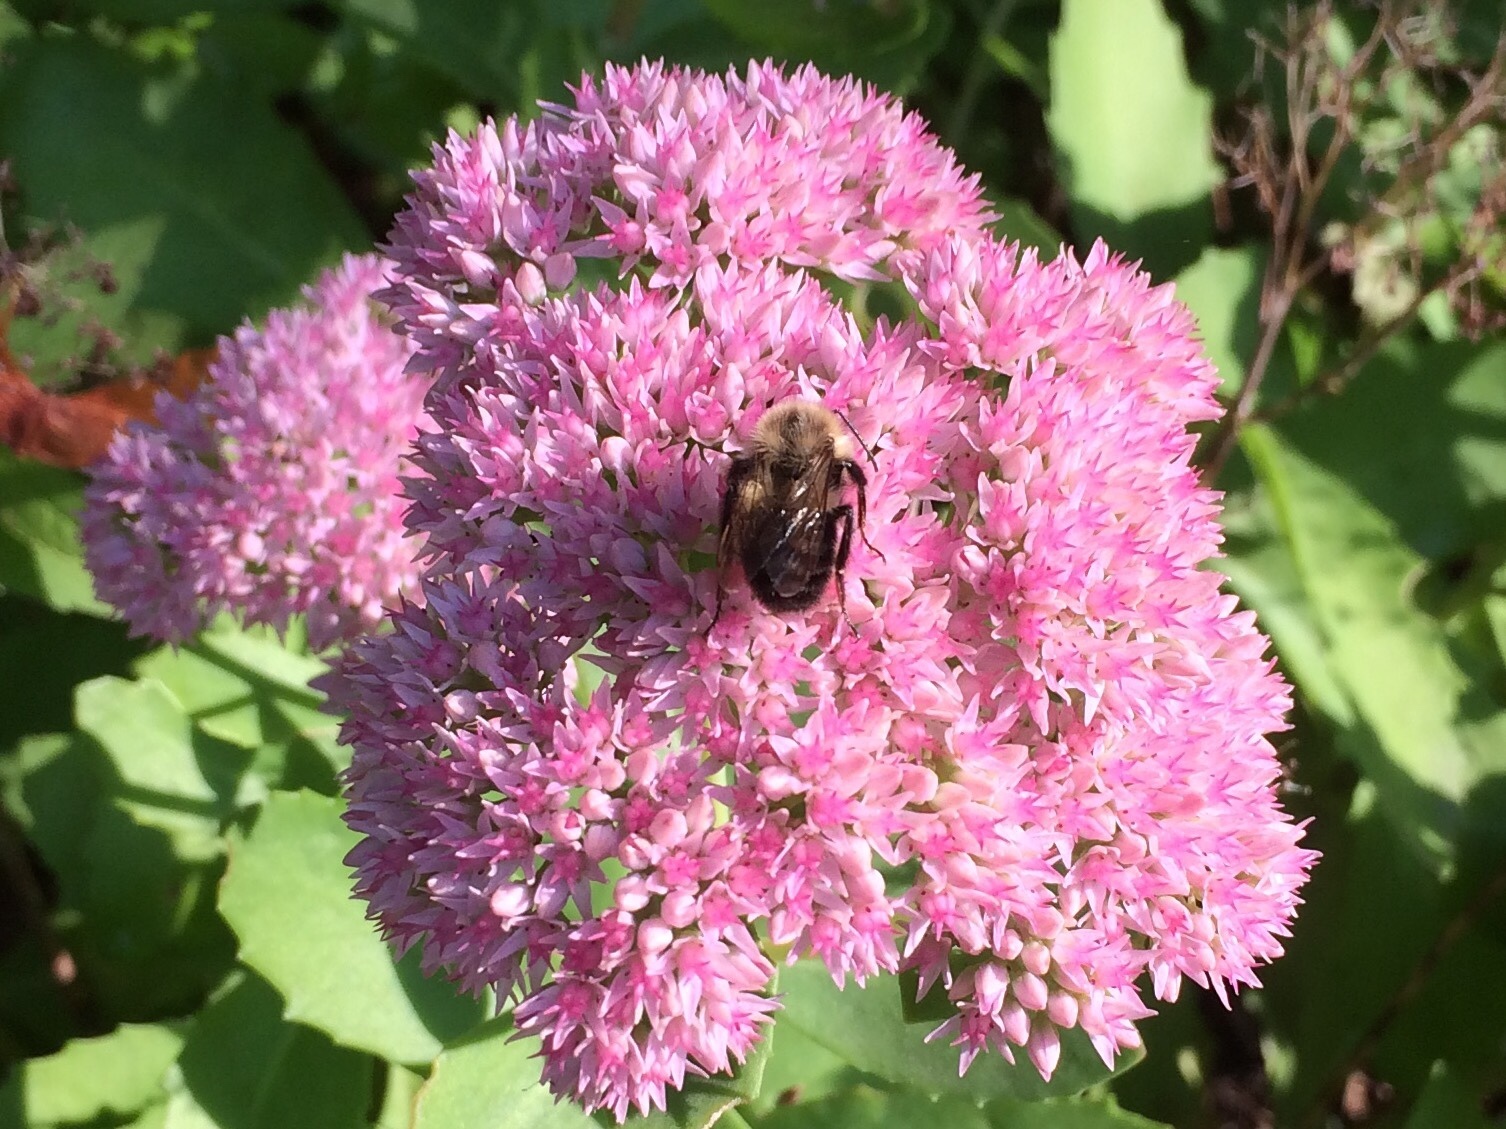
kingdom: Animalia
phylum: Arthropoda
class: Insecta
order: Hymenoptera
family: Apidae
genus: Bombus
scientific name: Bombus impatiens
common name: Common eastern bumble bee
